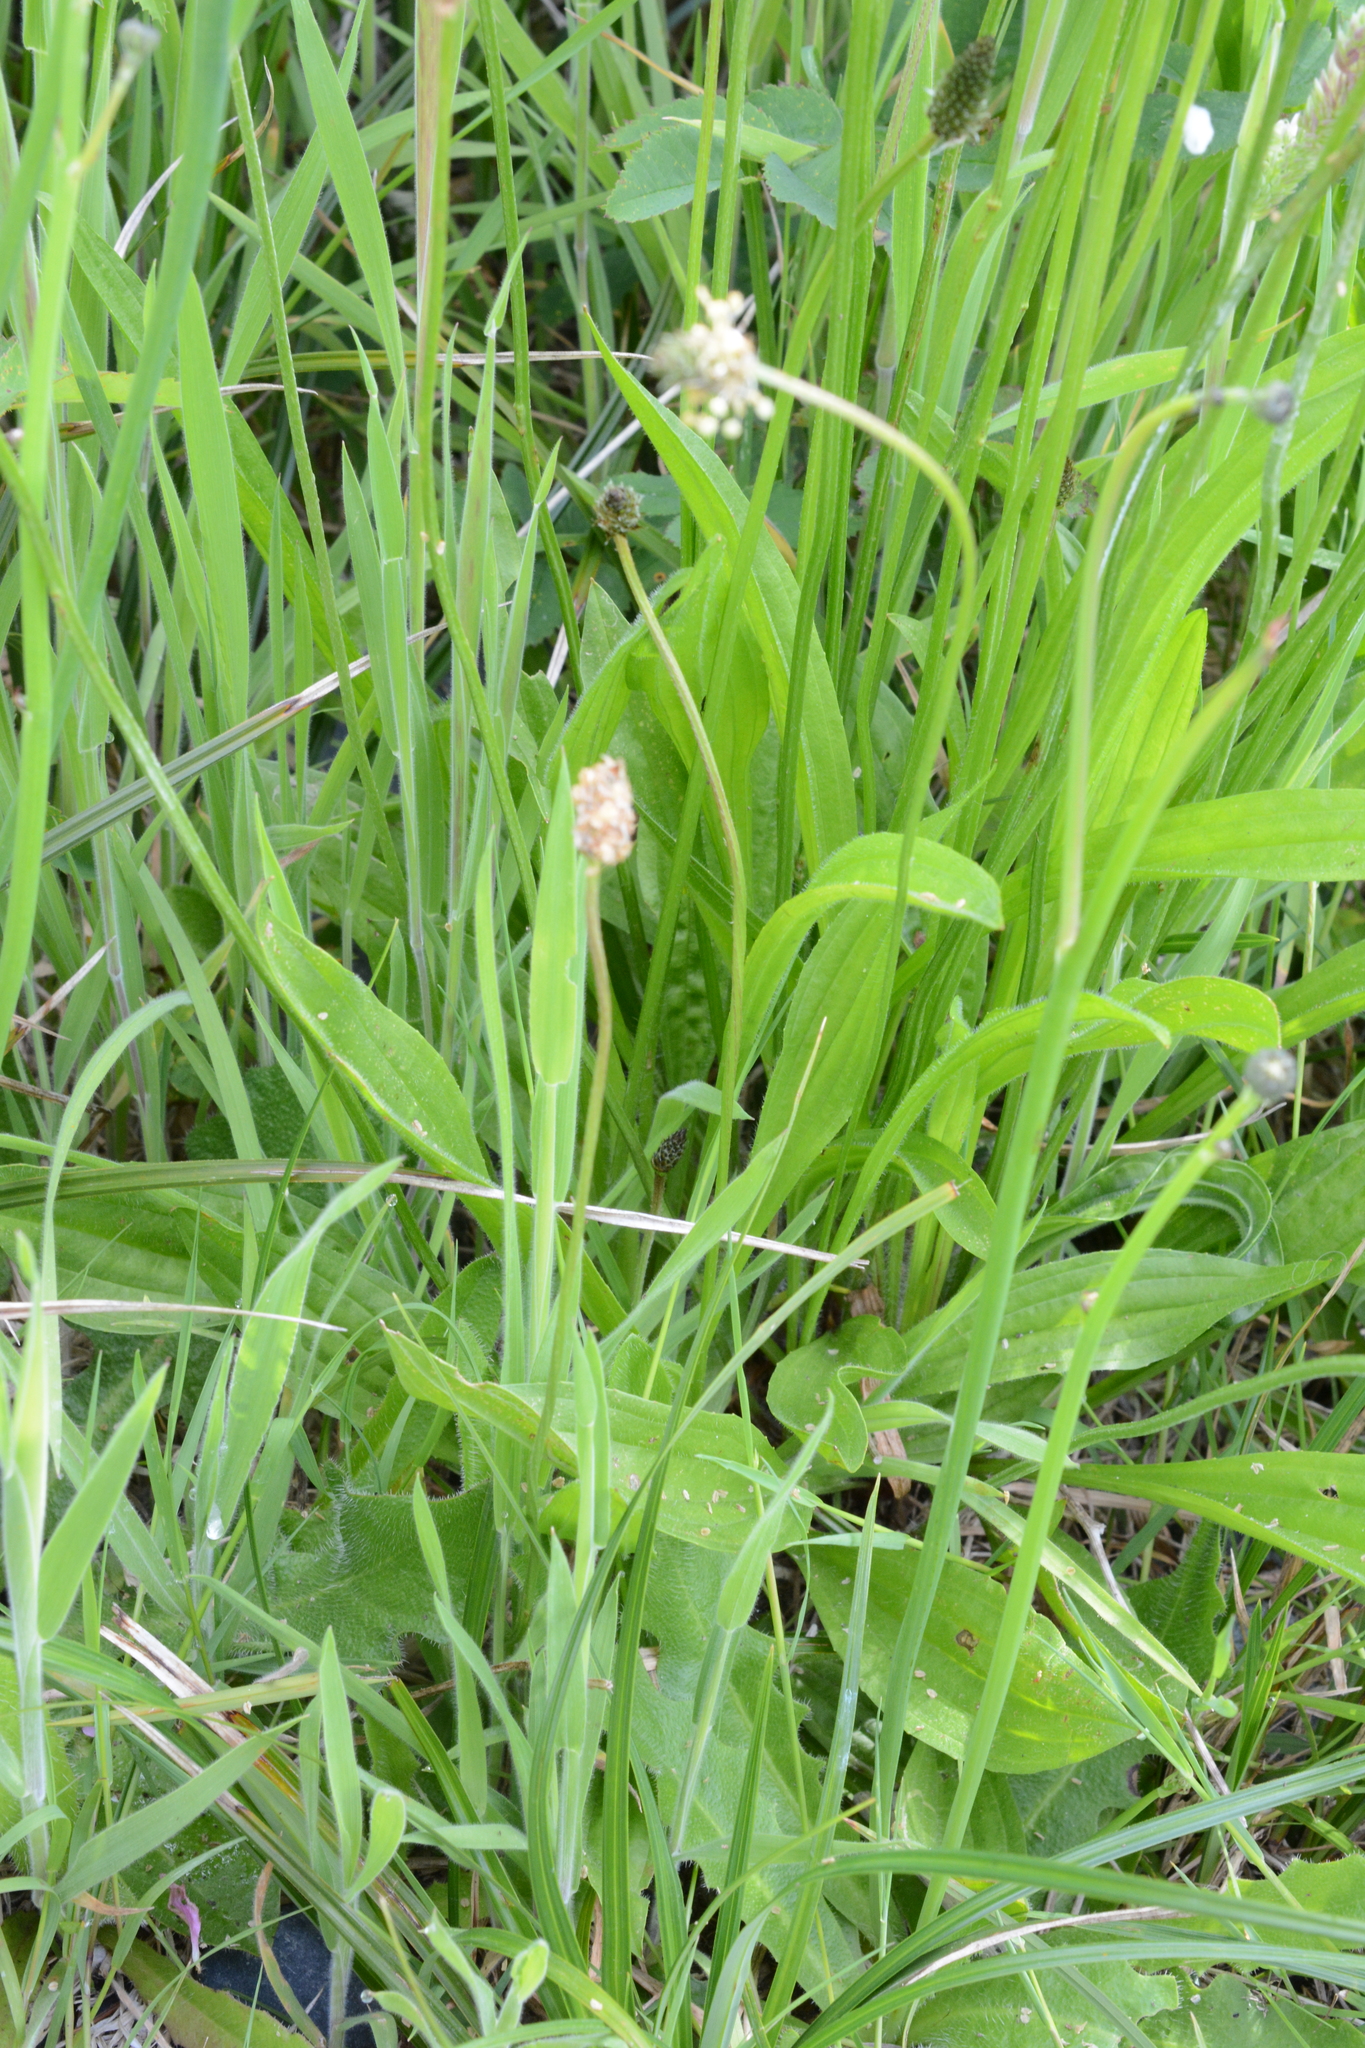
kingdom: Plantae
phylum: Tracheophyta
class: Magnoliopsida
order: Lamiales
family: Plantaginaceae
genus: Plantago
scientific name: Plantago lanceolata
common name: Ribwort plantain
